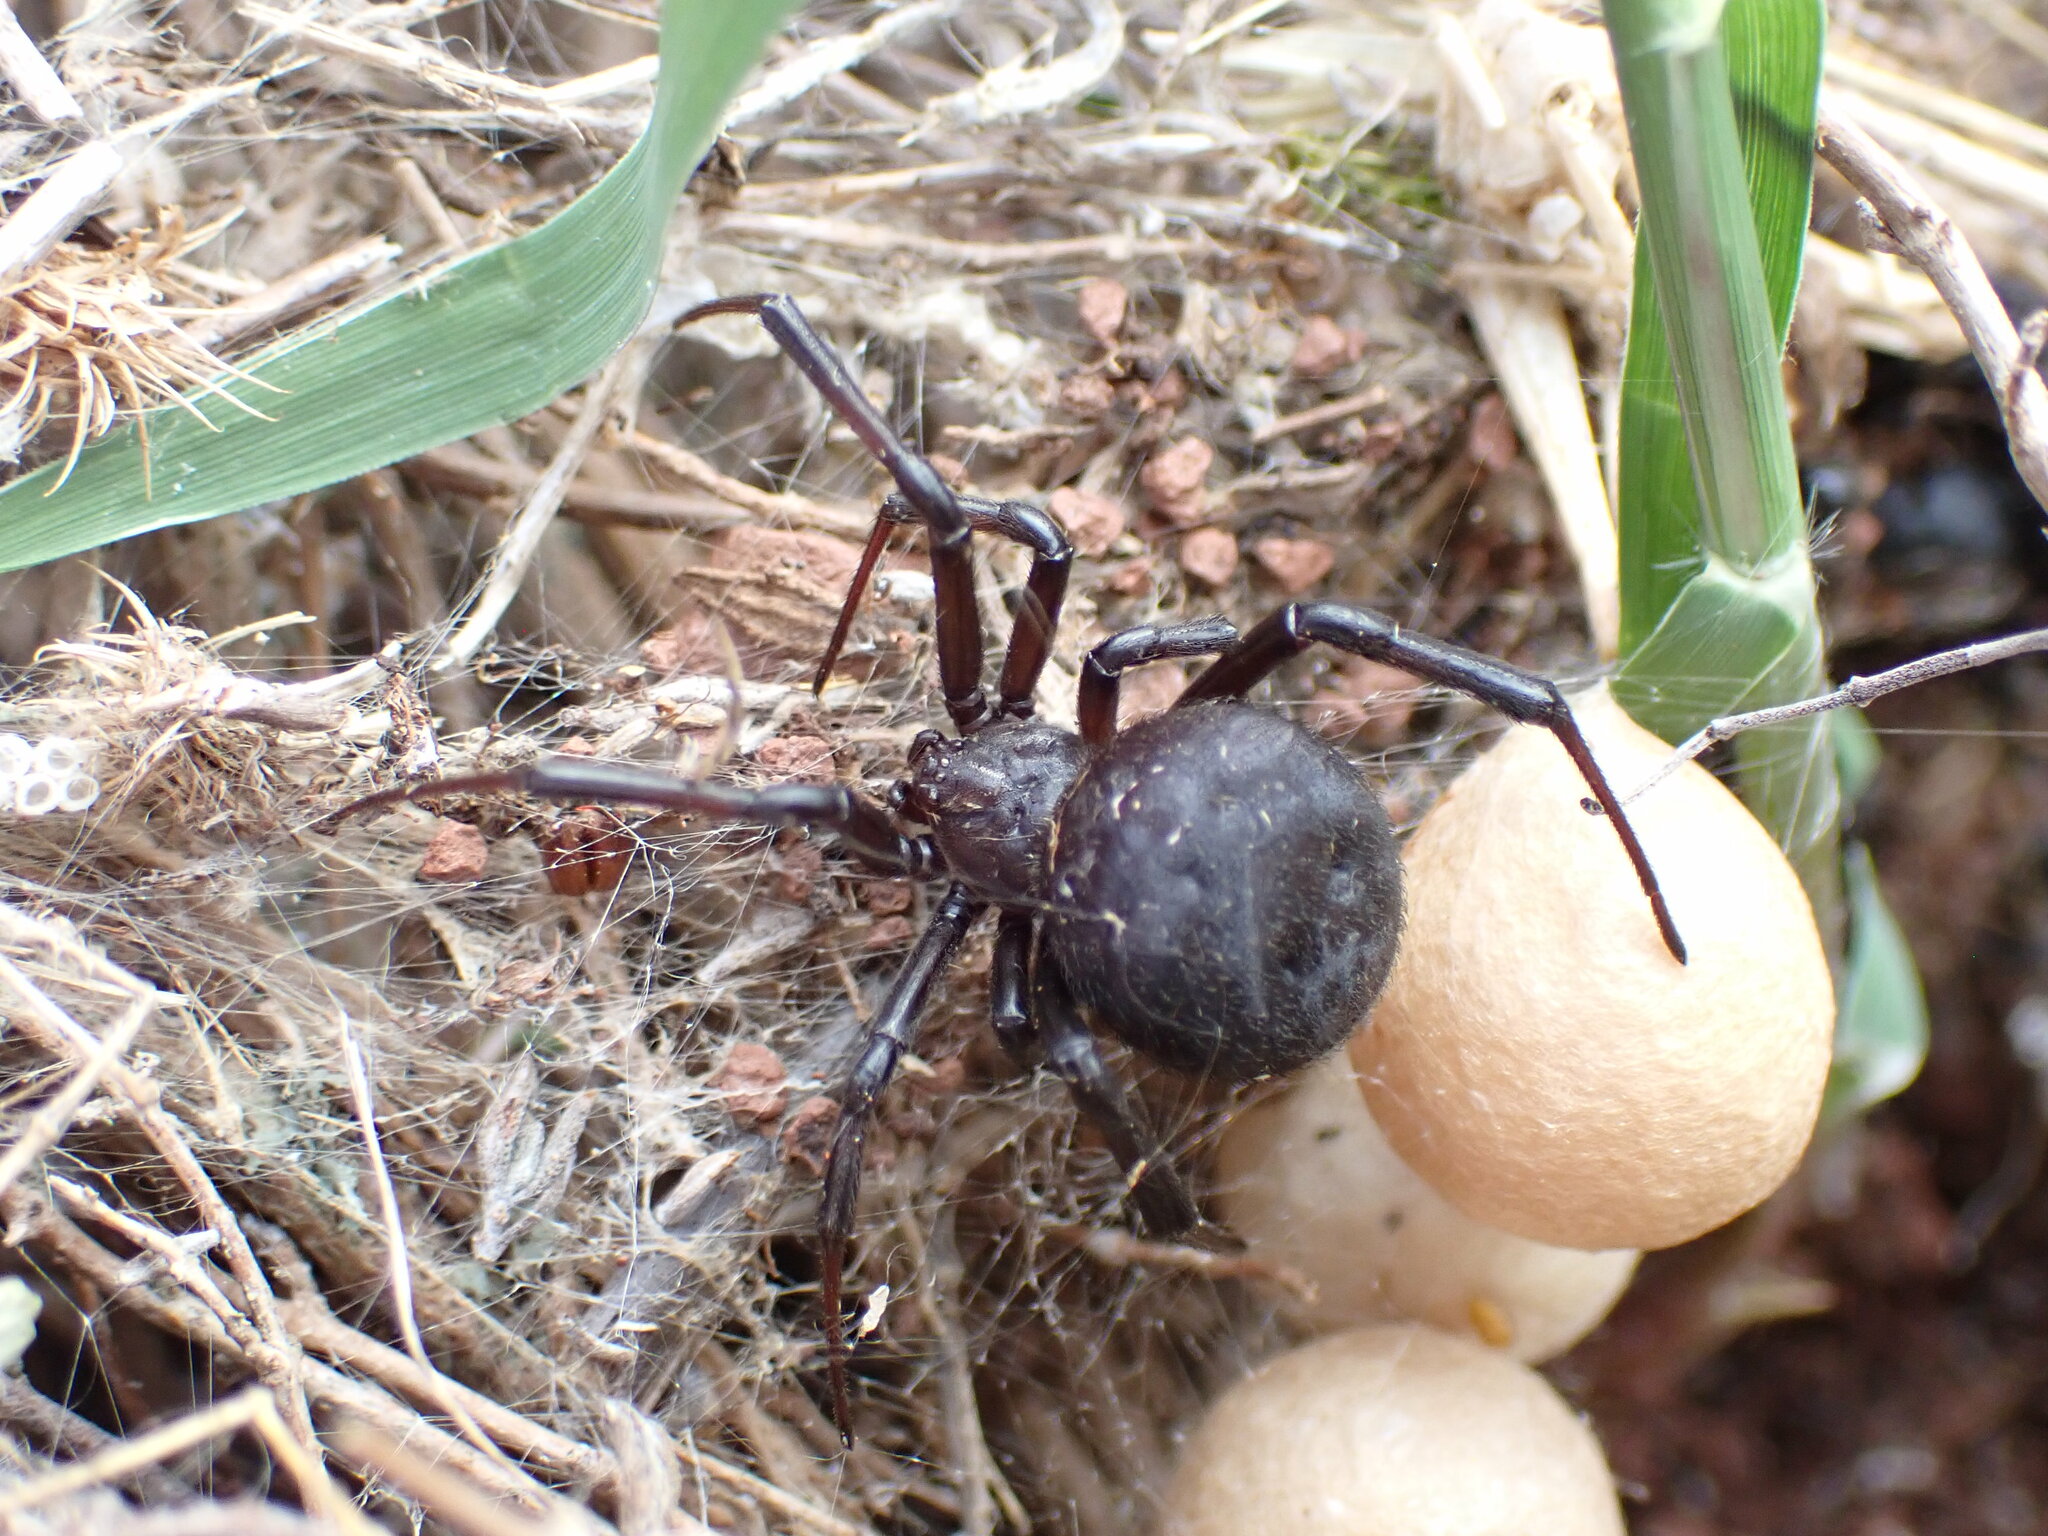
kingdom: Animalia
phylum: Arthropoda
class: Arachnida
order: Araneae
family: Theridiidae
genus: Latrodectus
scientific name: Latrodectus tredecimguttatus
